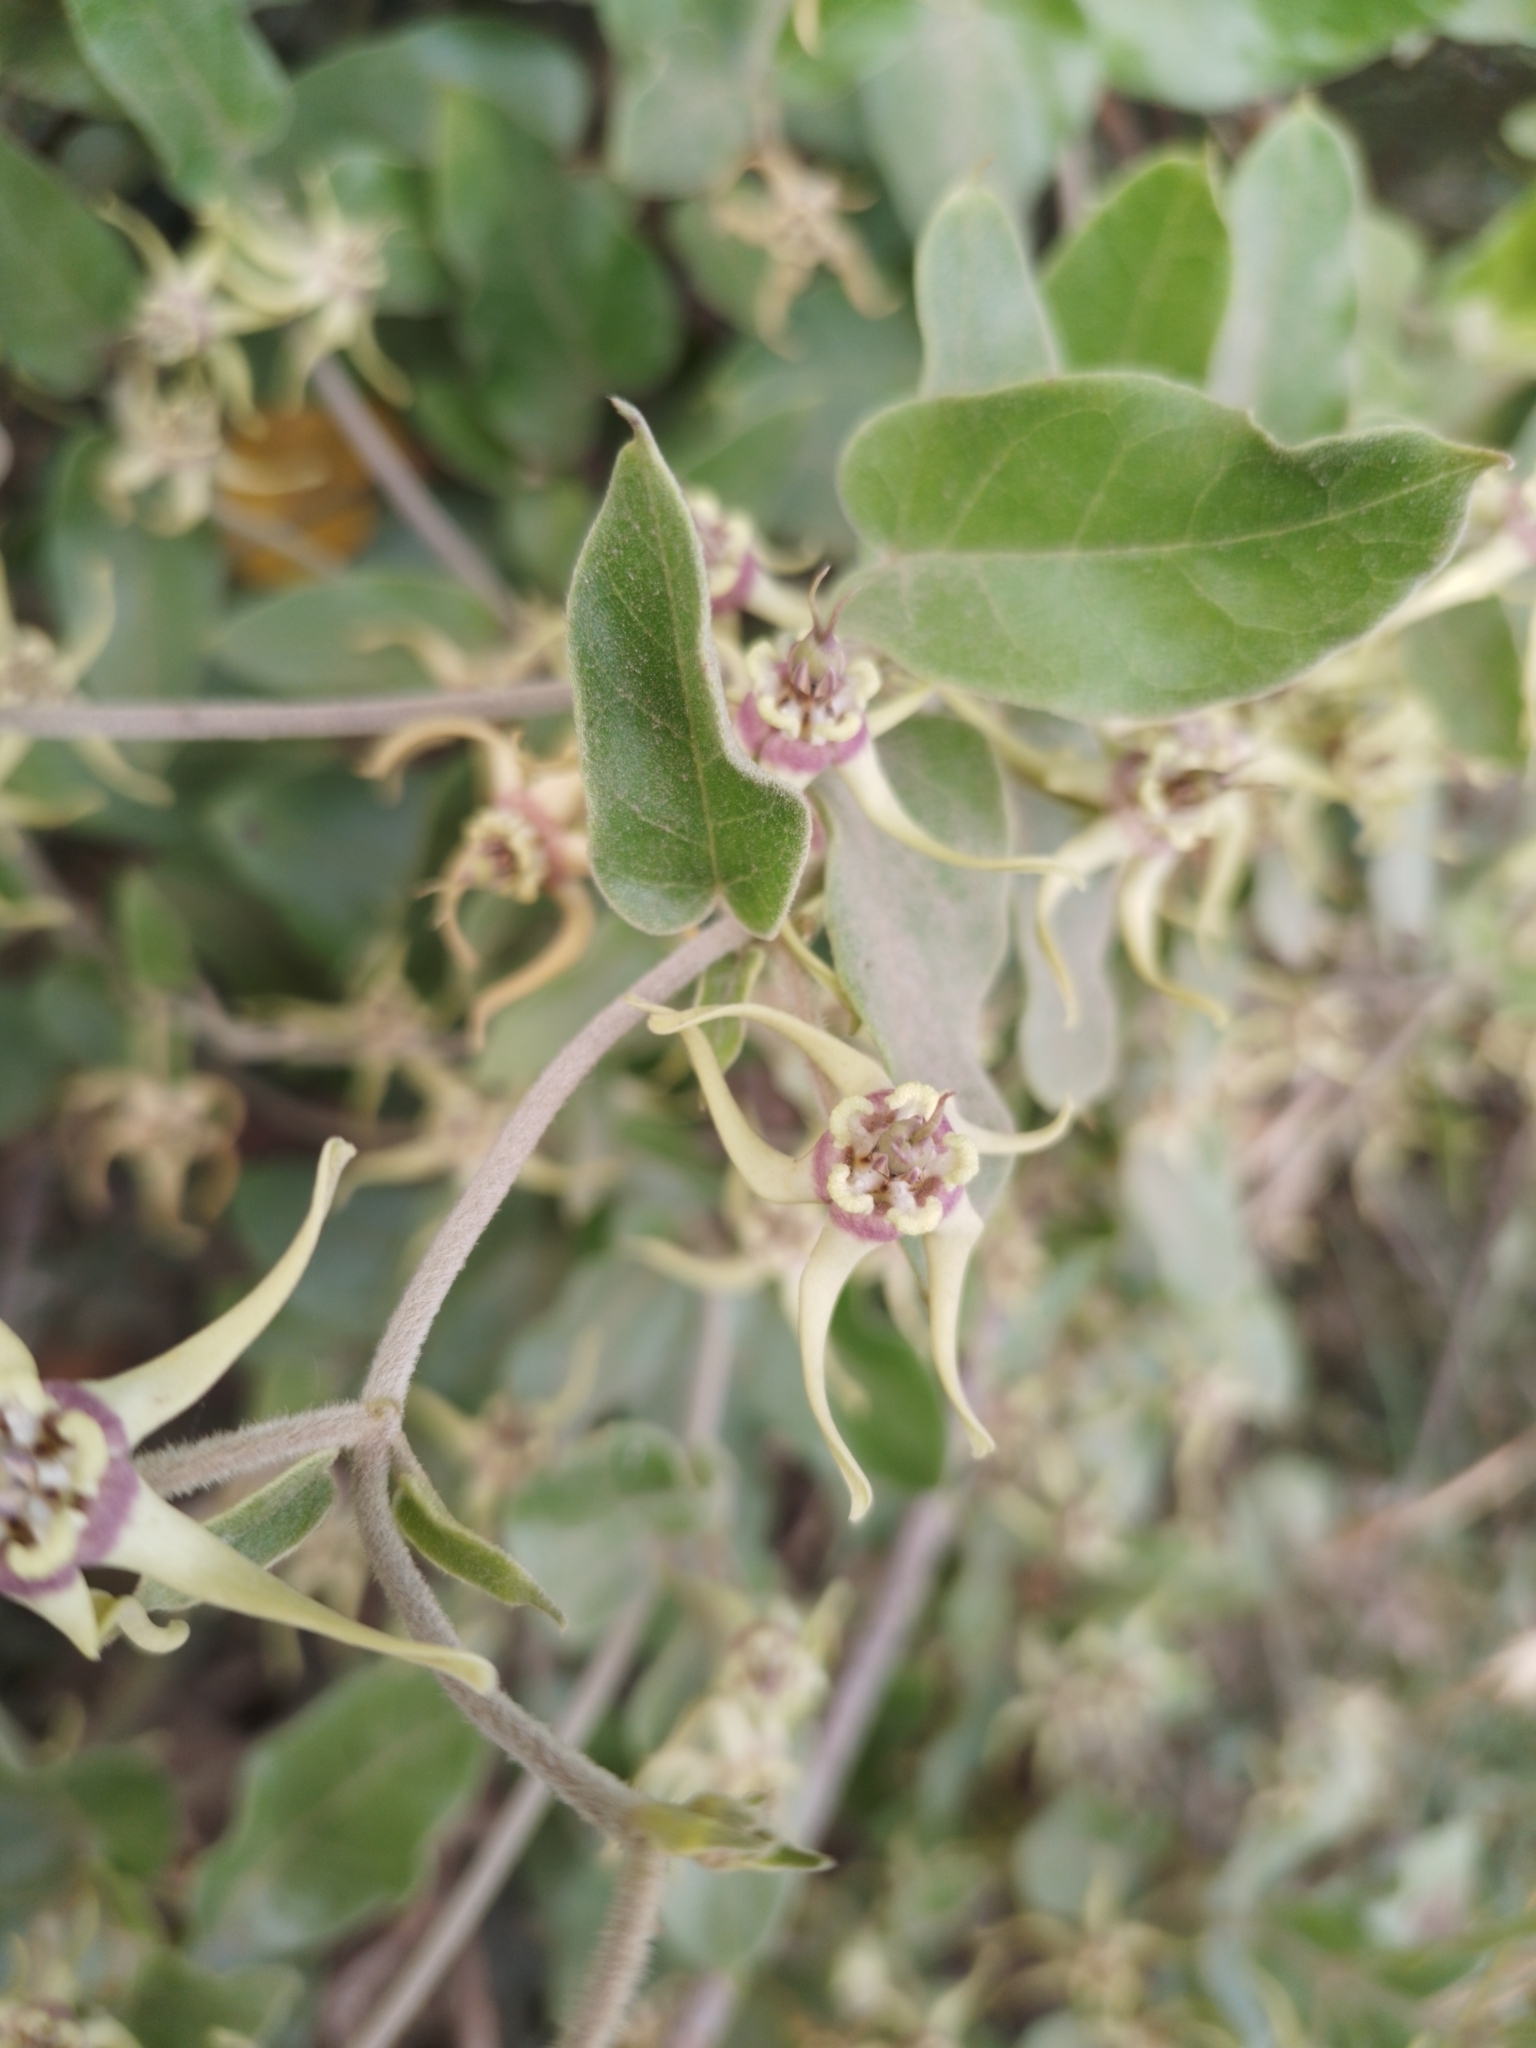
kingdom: Plantae
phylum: Tracheophyta
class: Magnoliopsida
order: Gentianales
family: Apocynaceae
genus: Oxypetalum
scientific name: Oxypetalum pannosum
